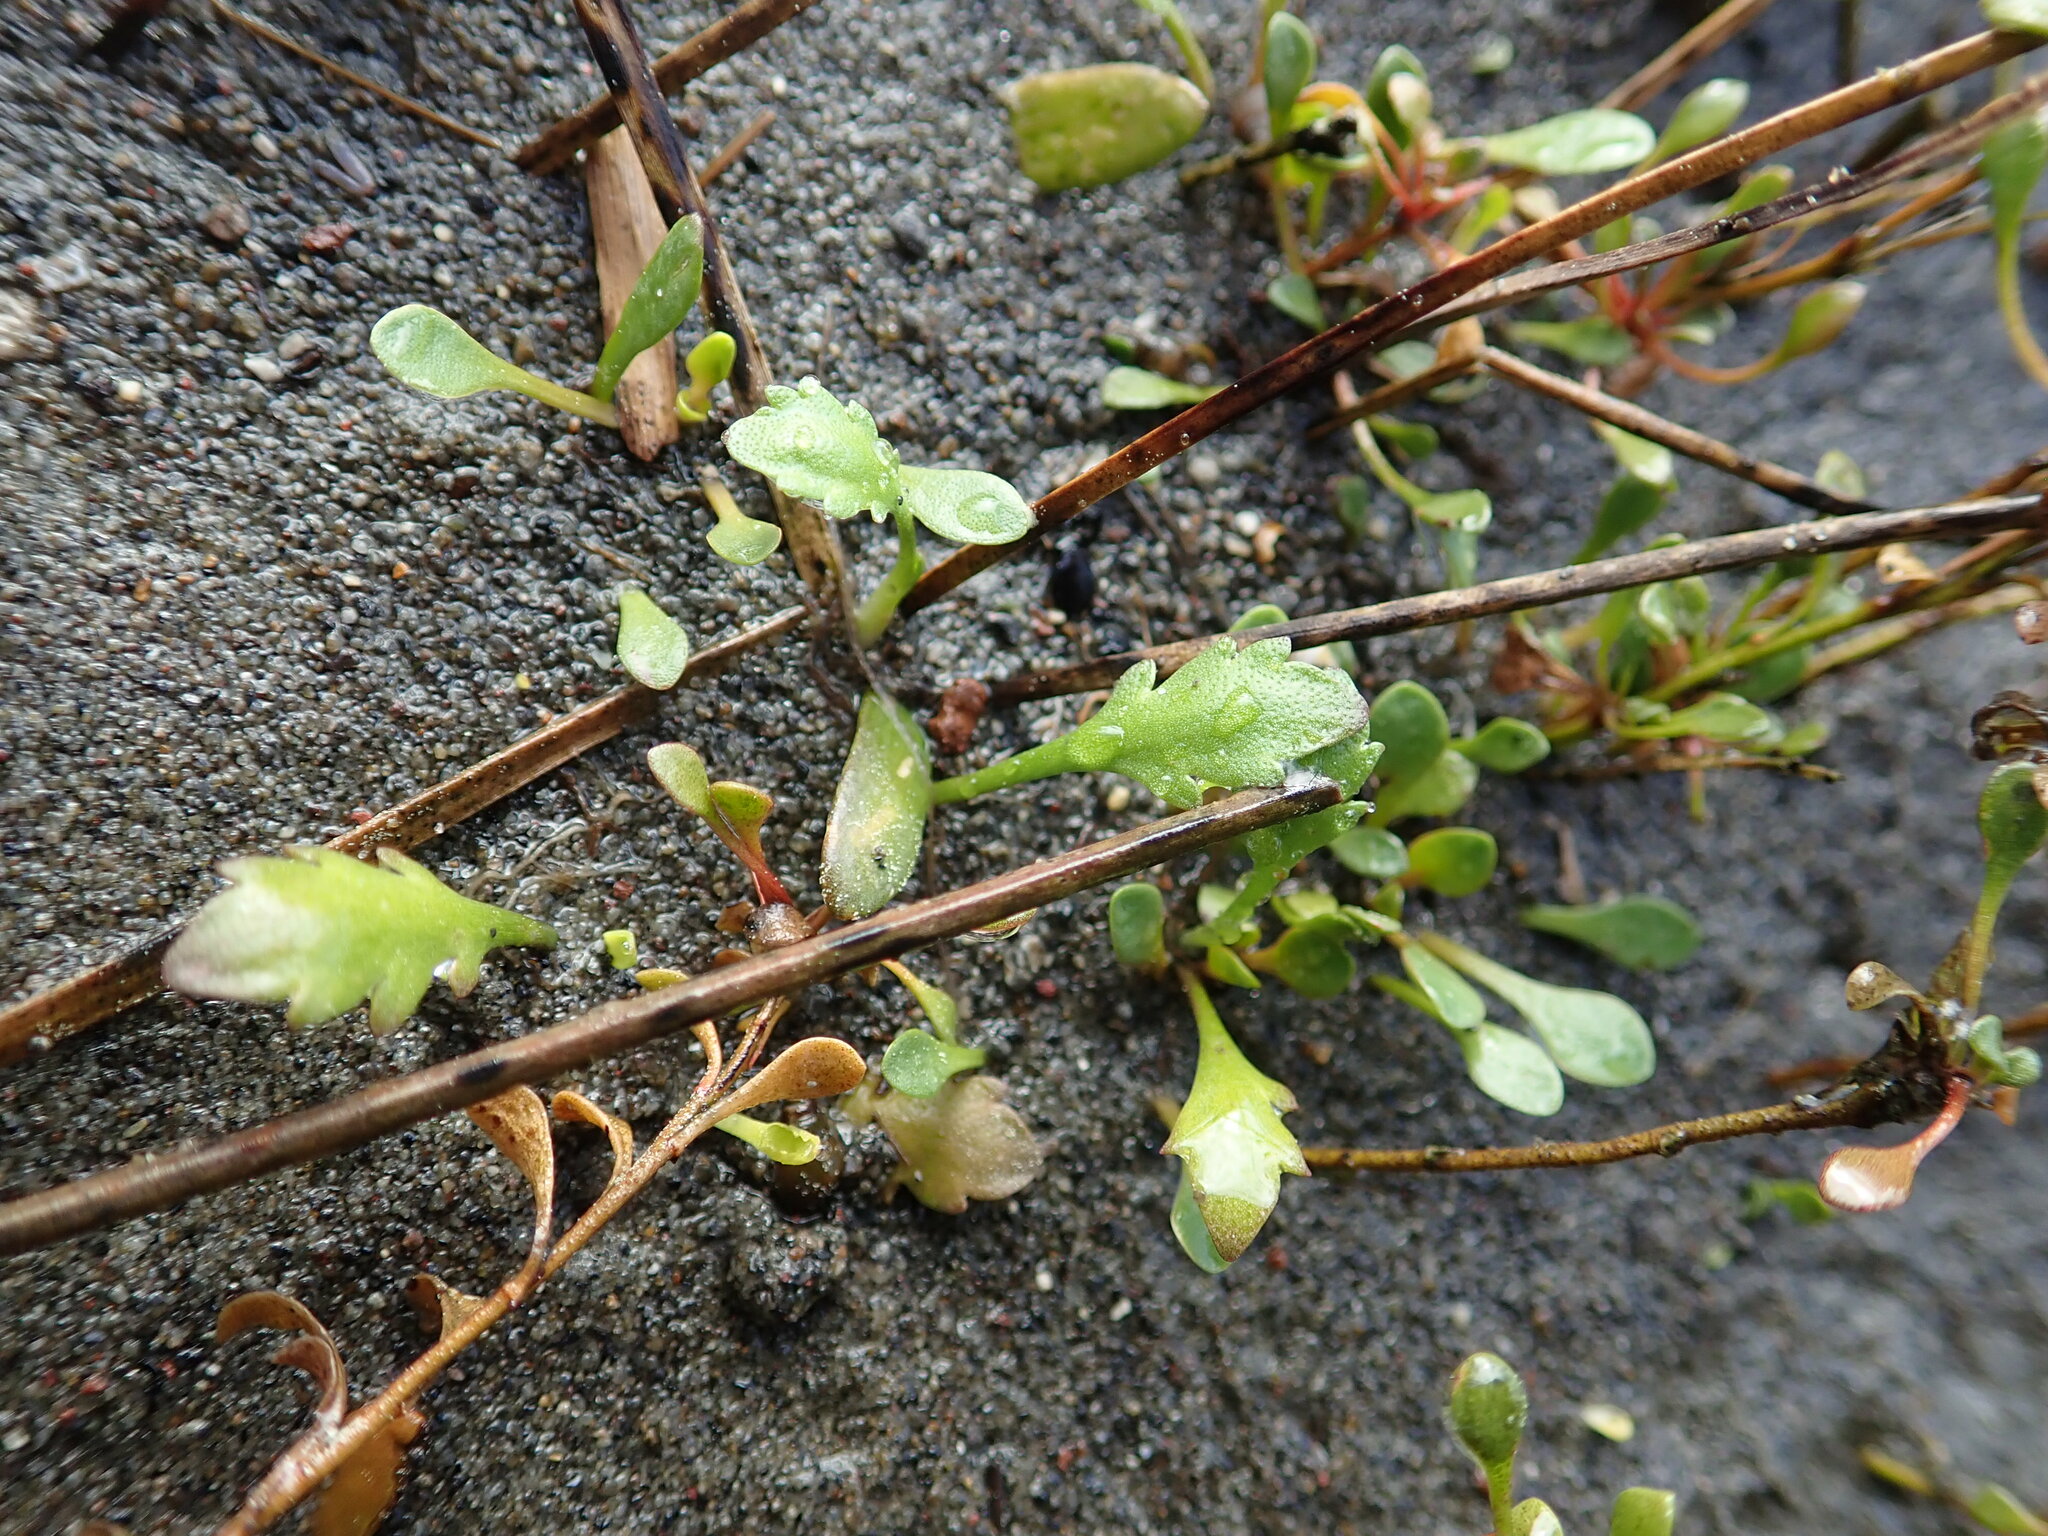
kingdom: Plantae
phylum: Tracheophyta
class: Magnoliopsida
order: Asterales
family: Asteraceae
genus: Leptinella
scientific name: Leptinella dioica
